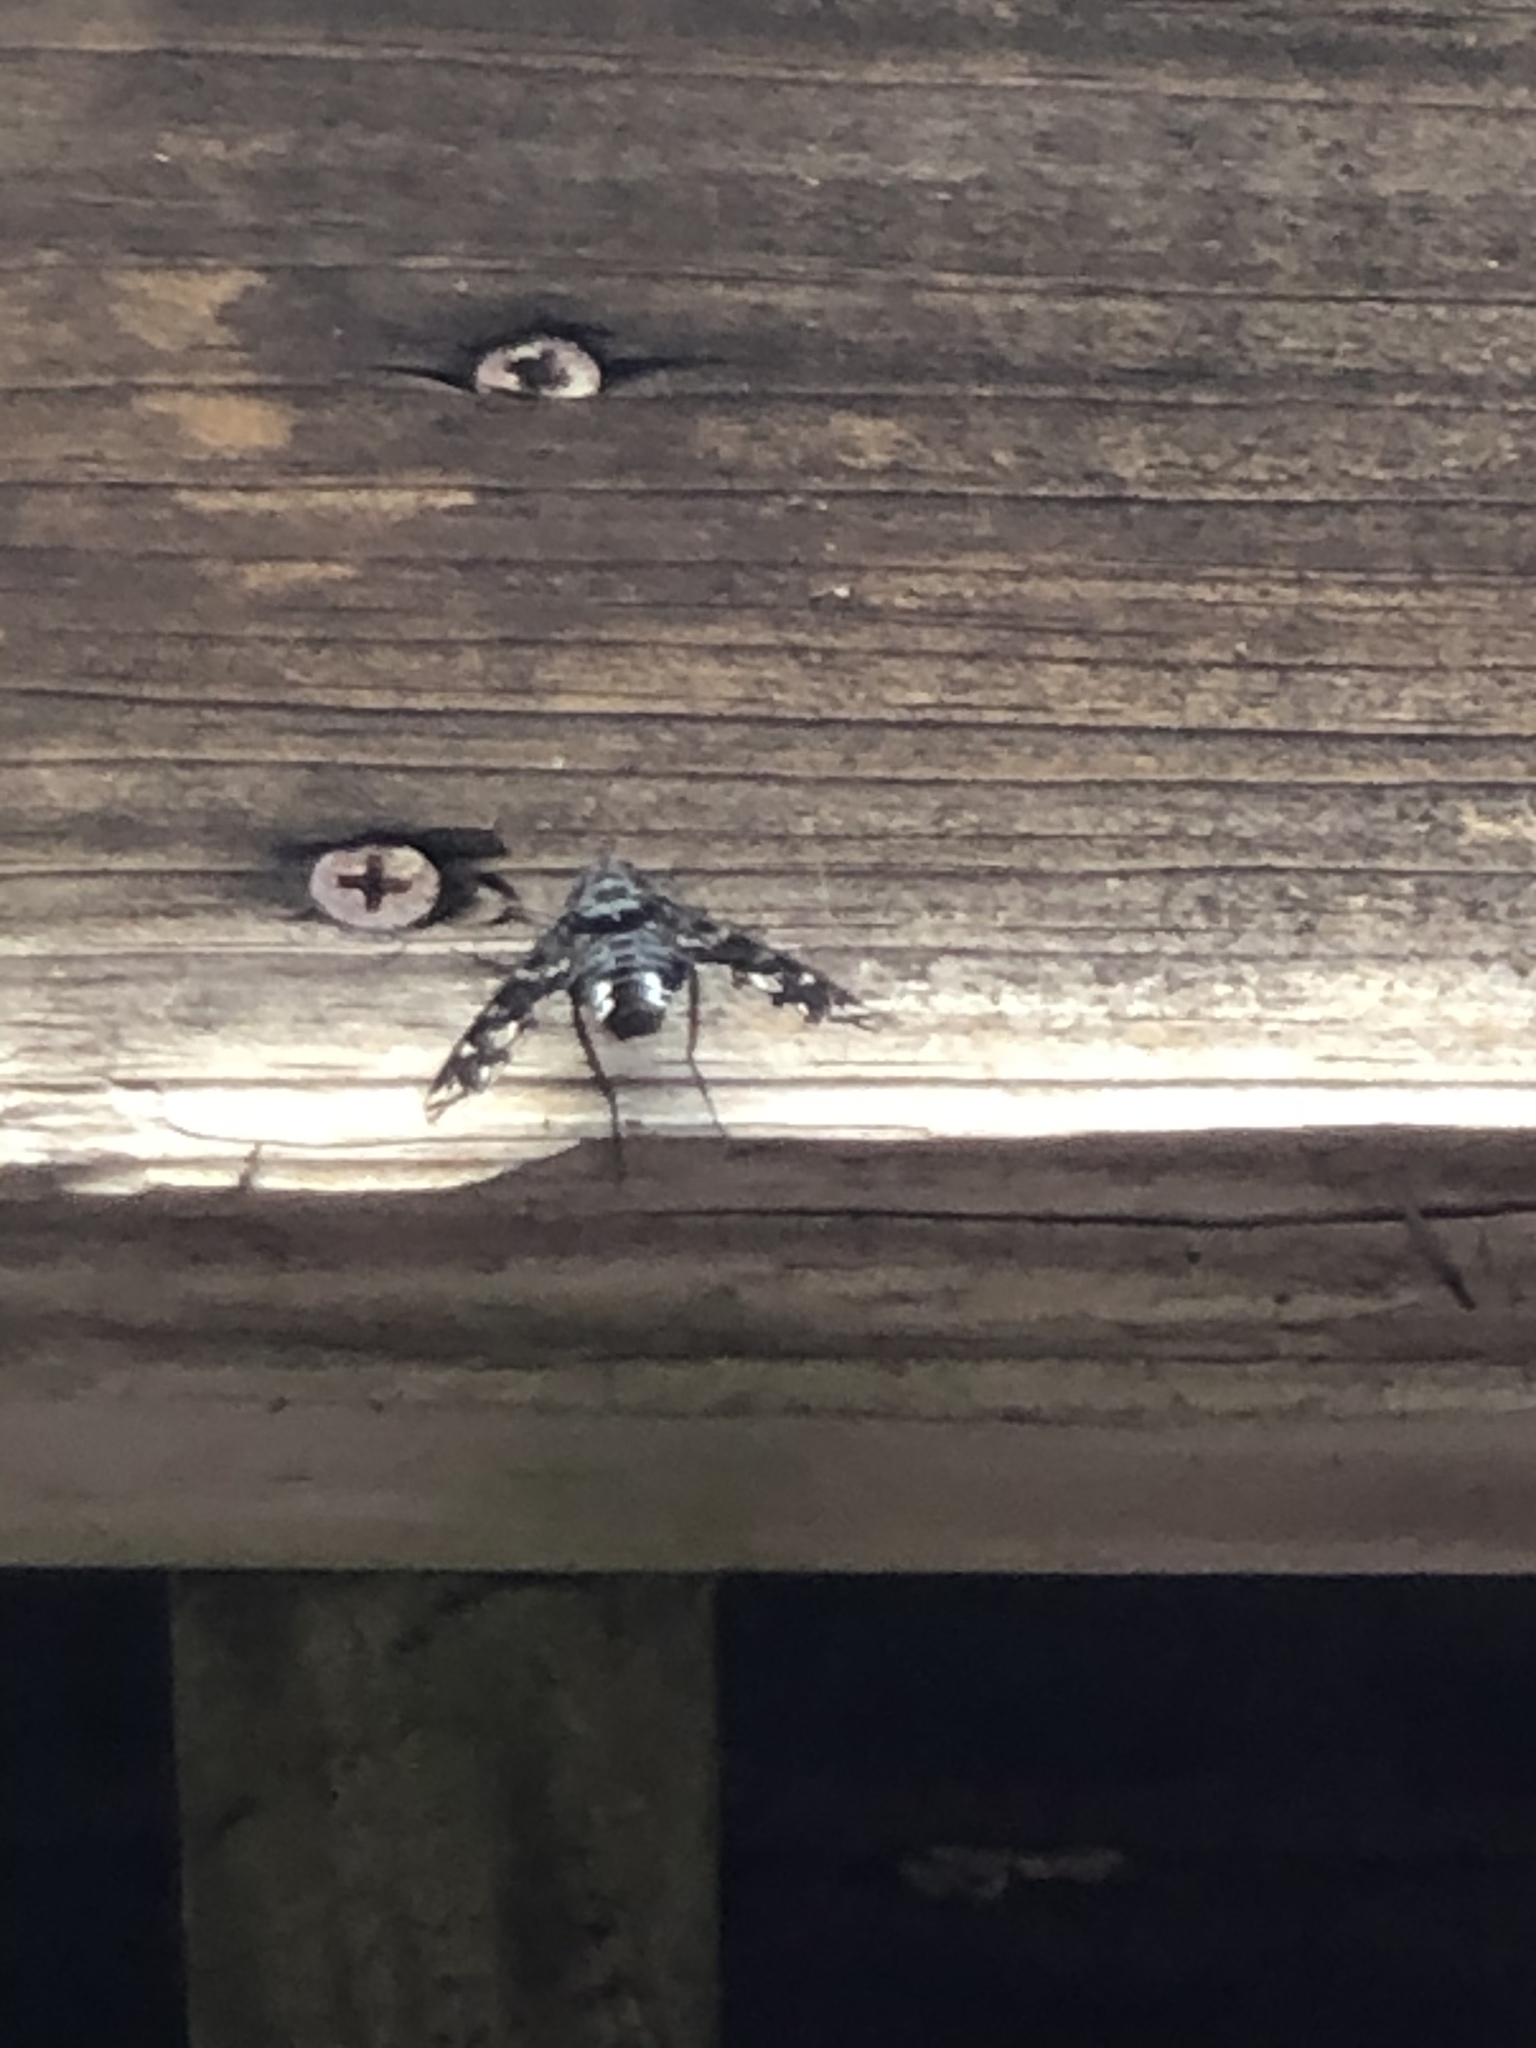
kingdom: Animalia
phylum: Arthropoda
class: Insecta
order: Diptera
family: Bombyliidae
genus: Xenox
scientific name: Xenox tigrinus
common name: Tiger bee fly
